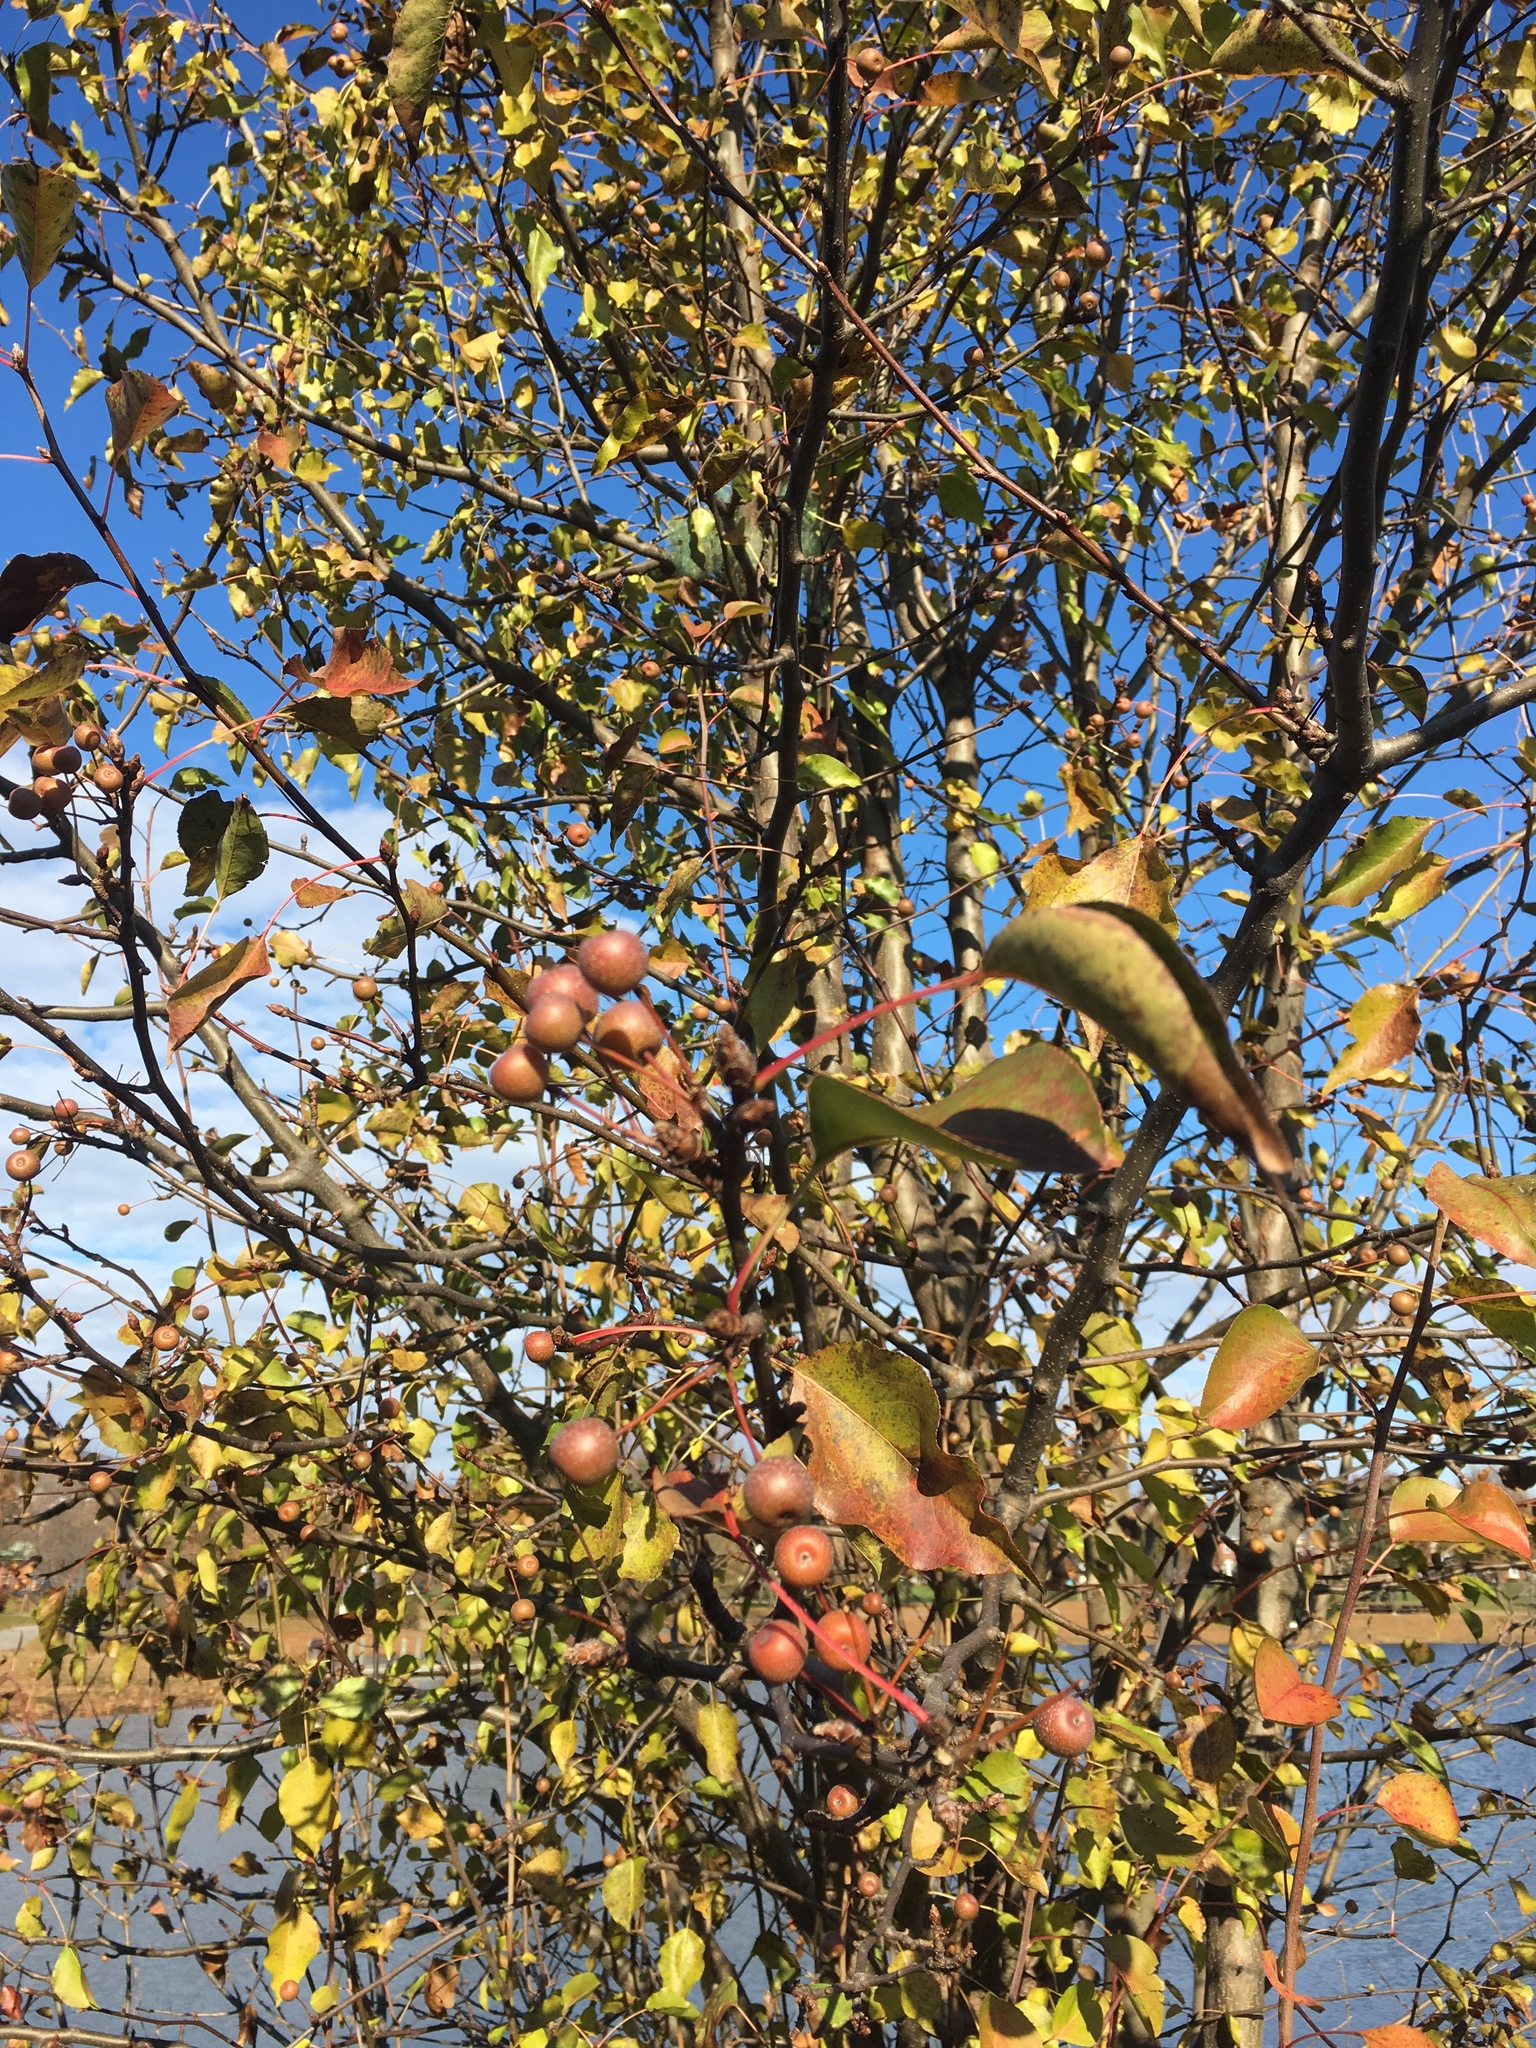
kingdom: Plantae
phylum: Tracheophyta
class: Magnoliopsida
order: Rosales
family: Rosaceae
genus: Pyrus
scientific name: Pyrus calleryana
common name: Callery pear
